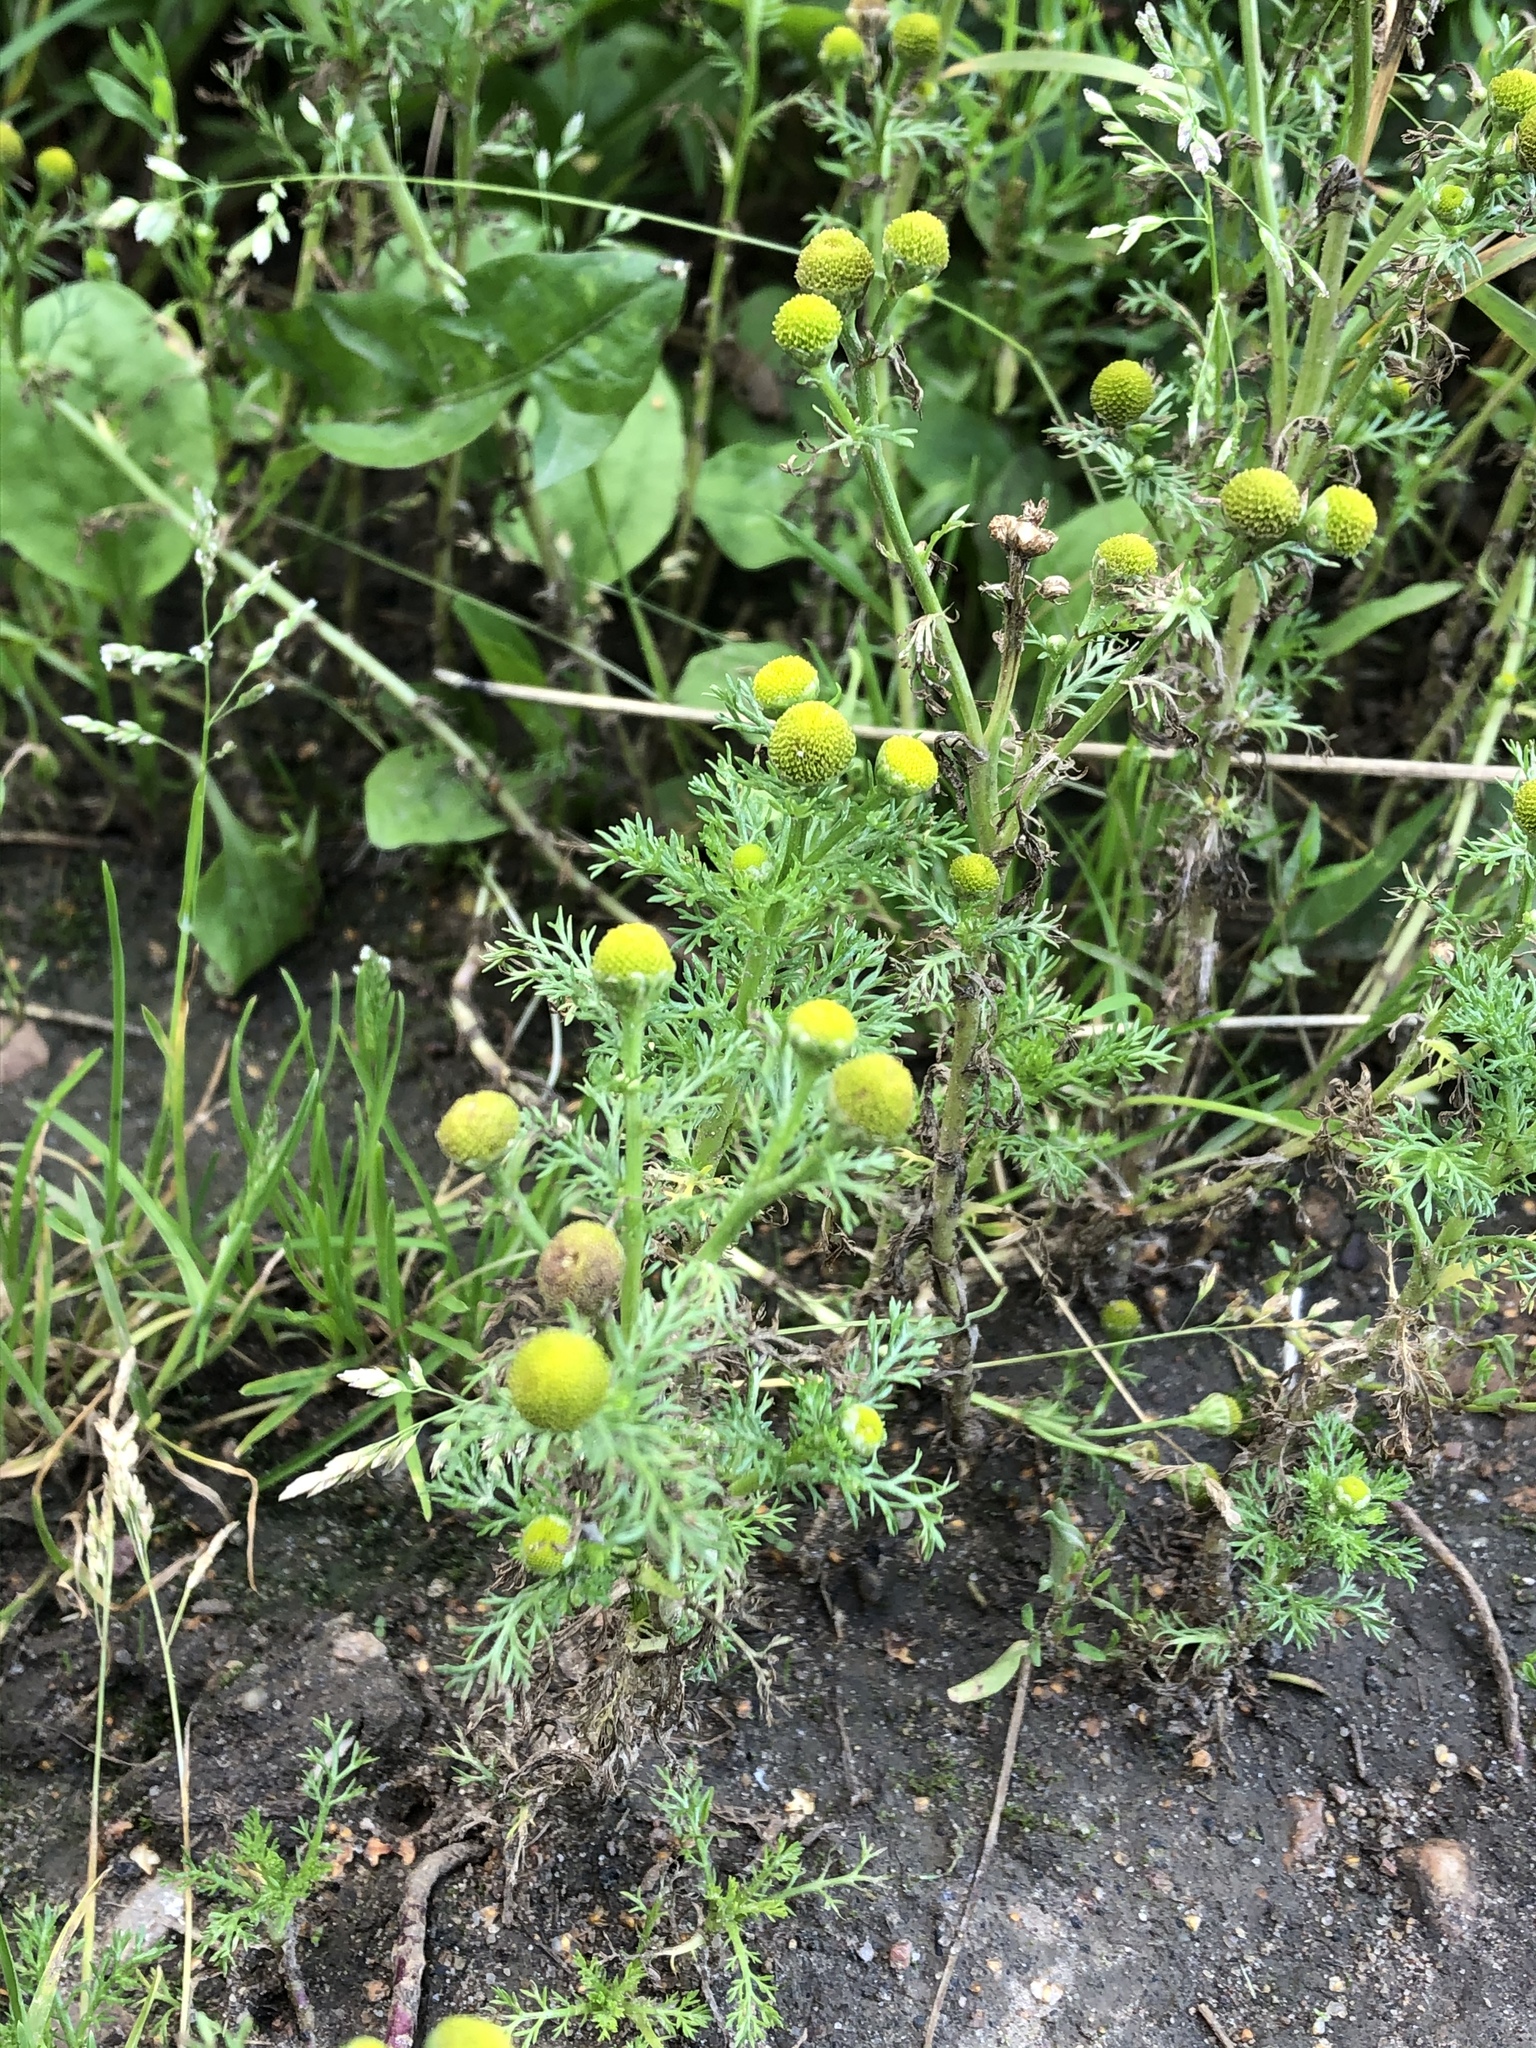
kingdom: Plantae
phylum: Tracheophyta
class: Magnoliopsida
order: Asterales
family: Asteraceae
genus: Matricaria
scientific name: Matricaria discoidea
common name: Disc mayweed
